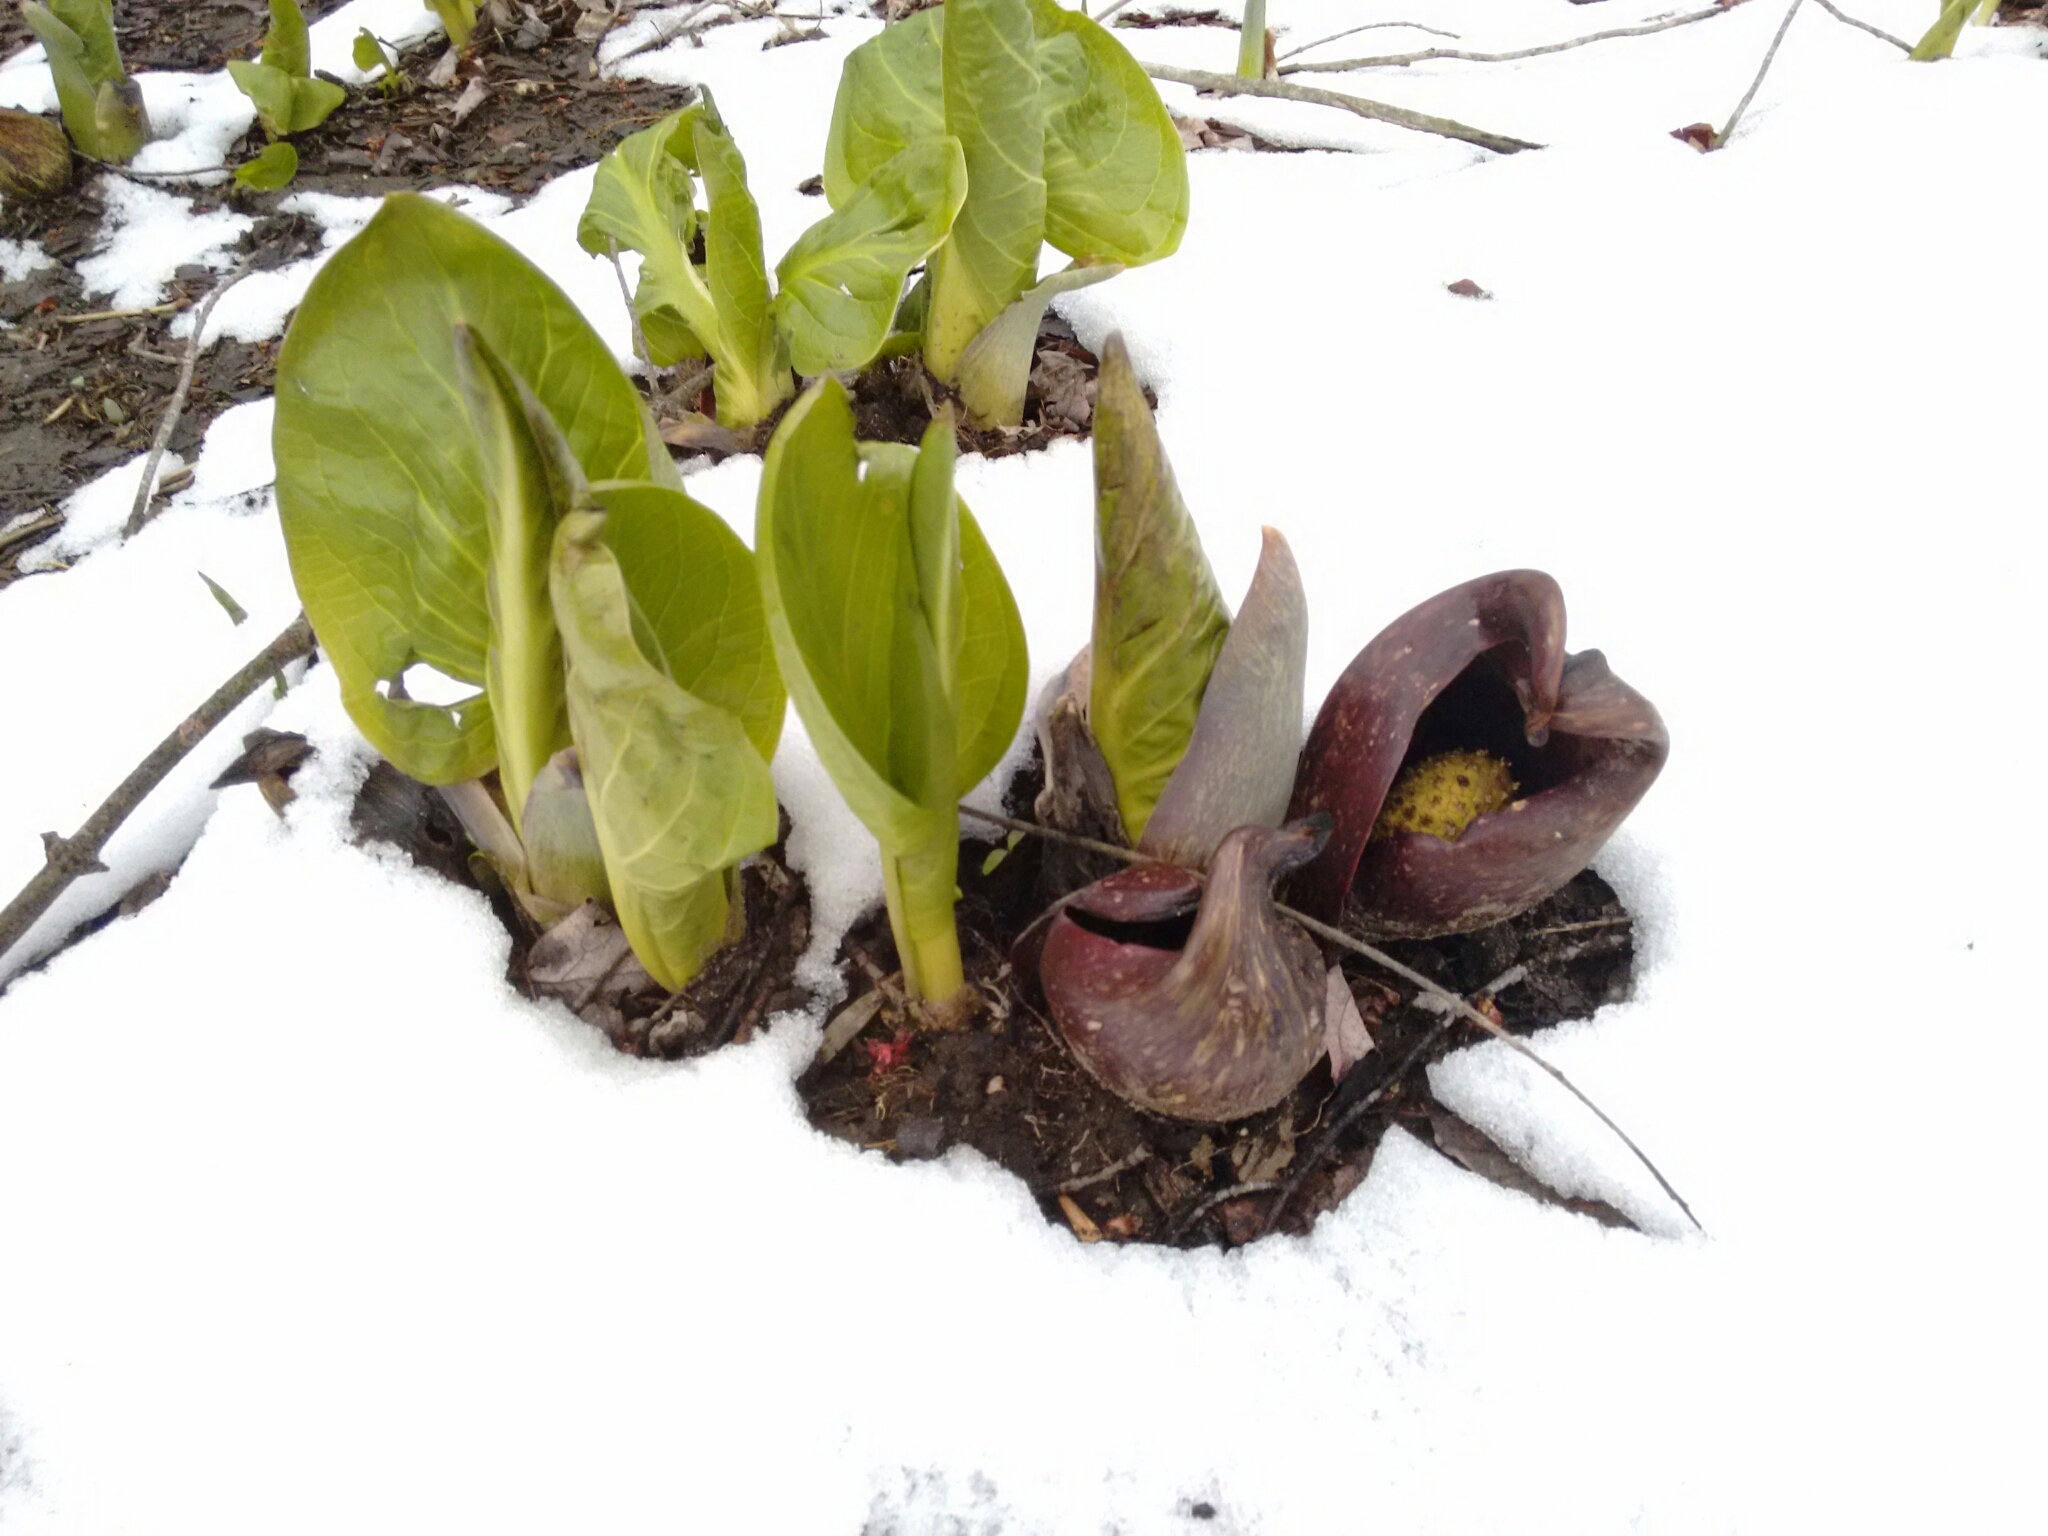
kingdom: Plantae
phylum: Tracheophyta
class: Liliopsida
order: Alismatales
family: Araceae
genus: Symplocarpus
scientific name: Symplocarpus foetidus
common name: Eastern skunk cabbage
